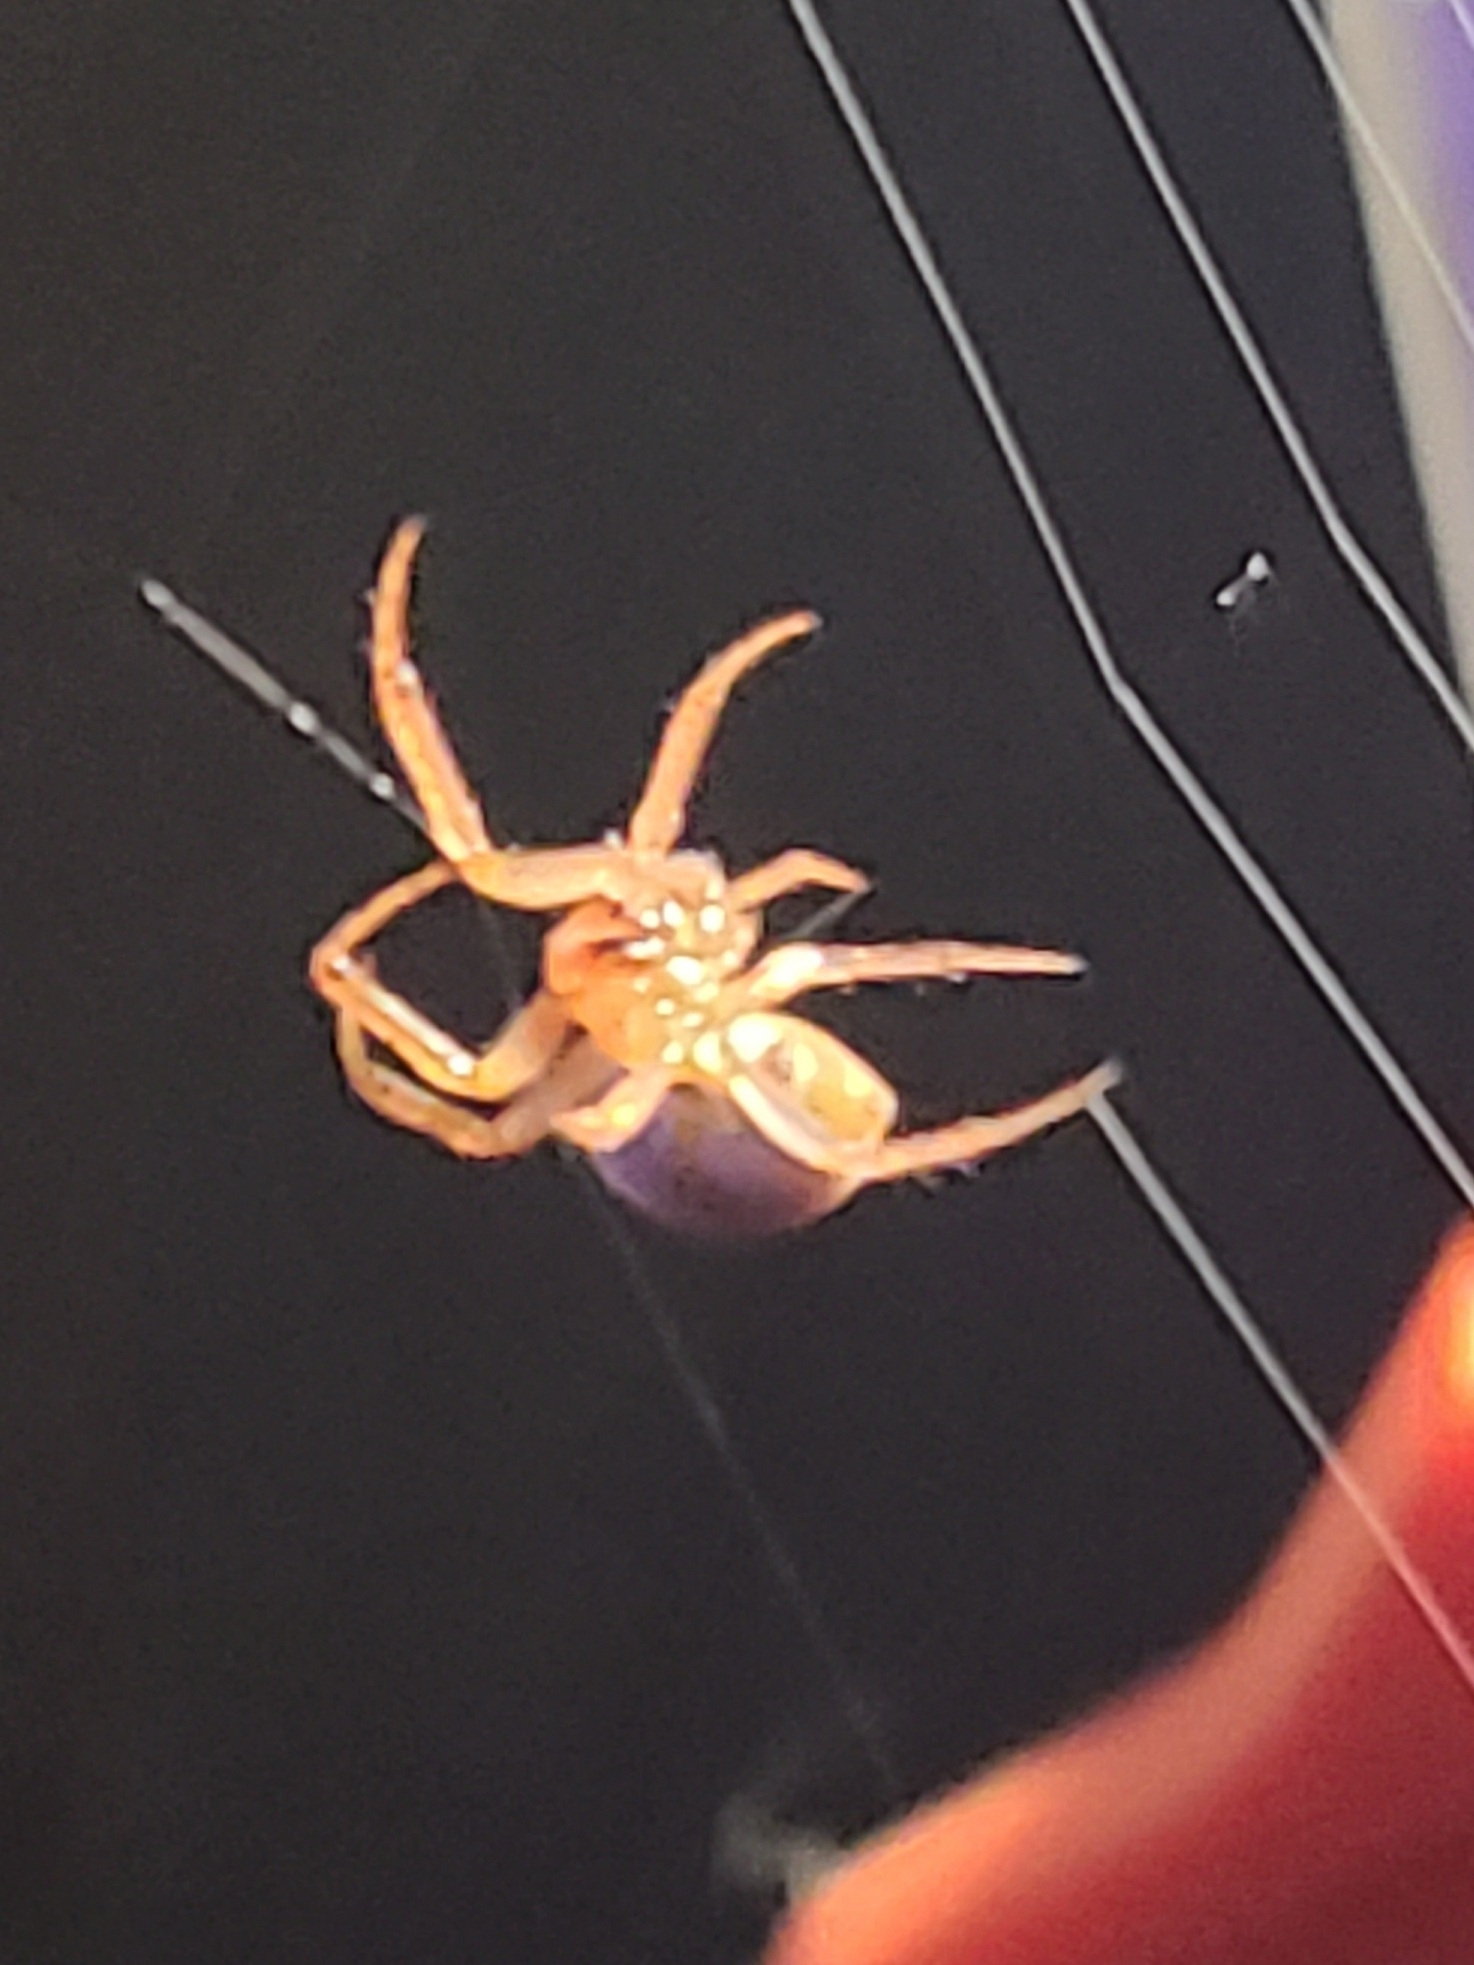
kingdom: Animalia
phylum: Arthropoda
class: Arachnida
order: Araneae
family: Araneidae
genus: Eriophora
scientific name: Eriophora ravilla
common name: Orb weavers
